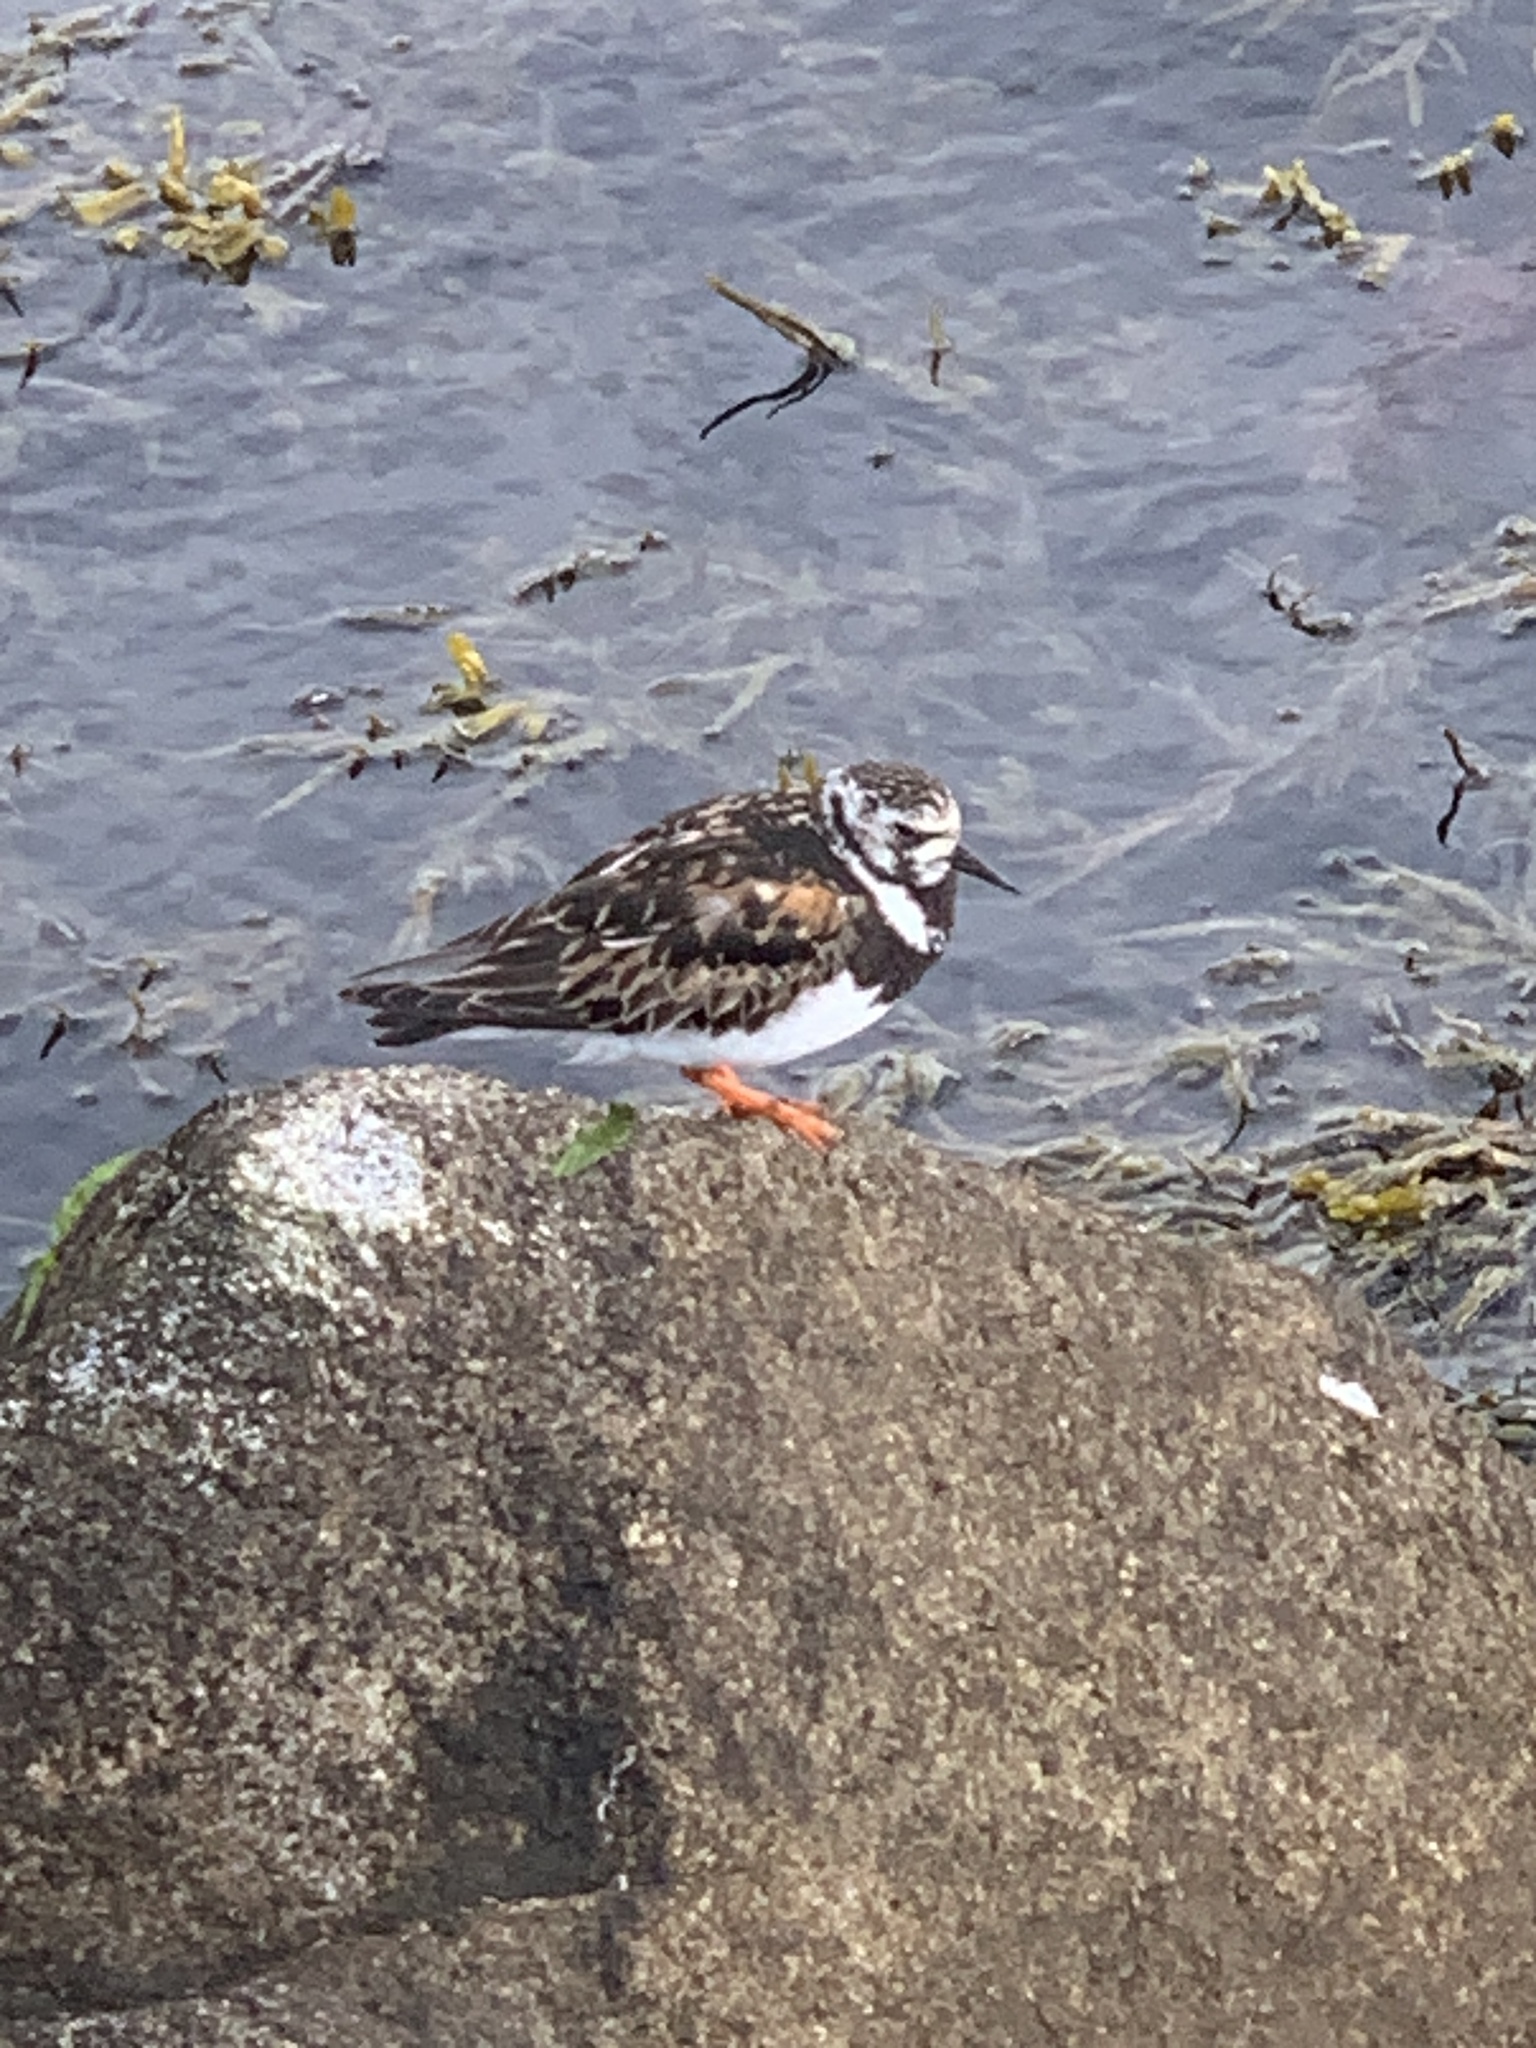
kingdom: Animalia
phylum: Chordata
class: Aves
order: Charadriiformes
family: Scolopacidae
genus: Arenaria
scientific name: Arenaria interpres
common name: Ruddy turnstone
